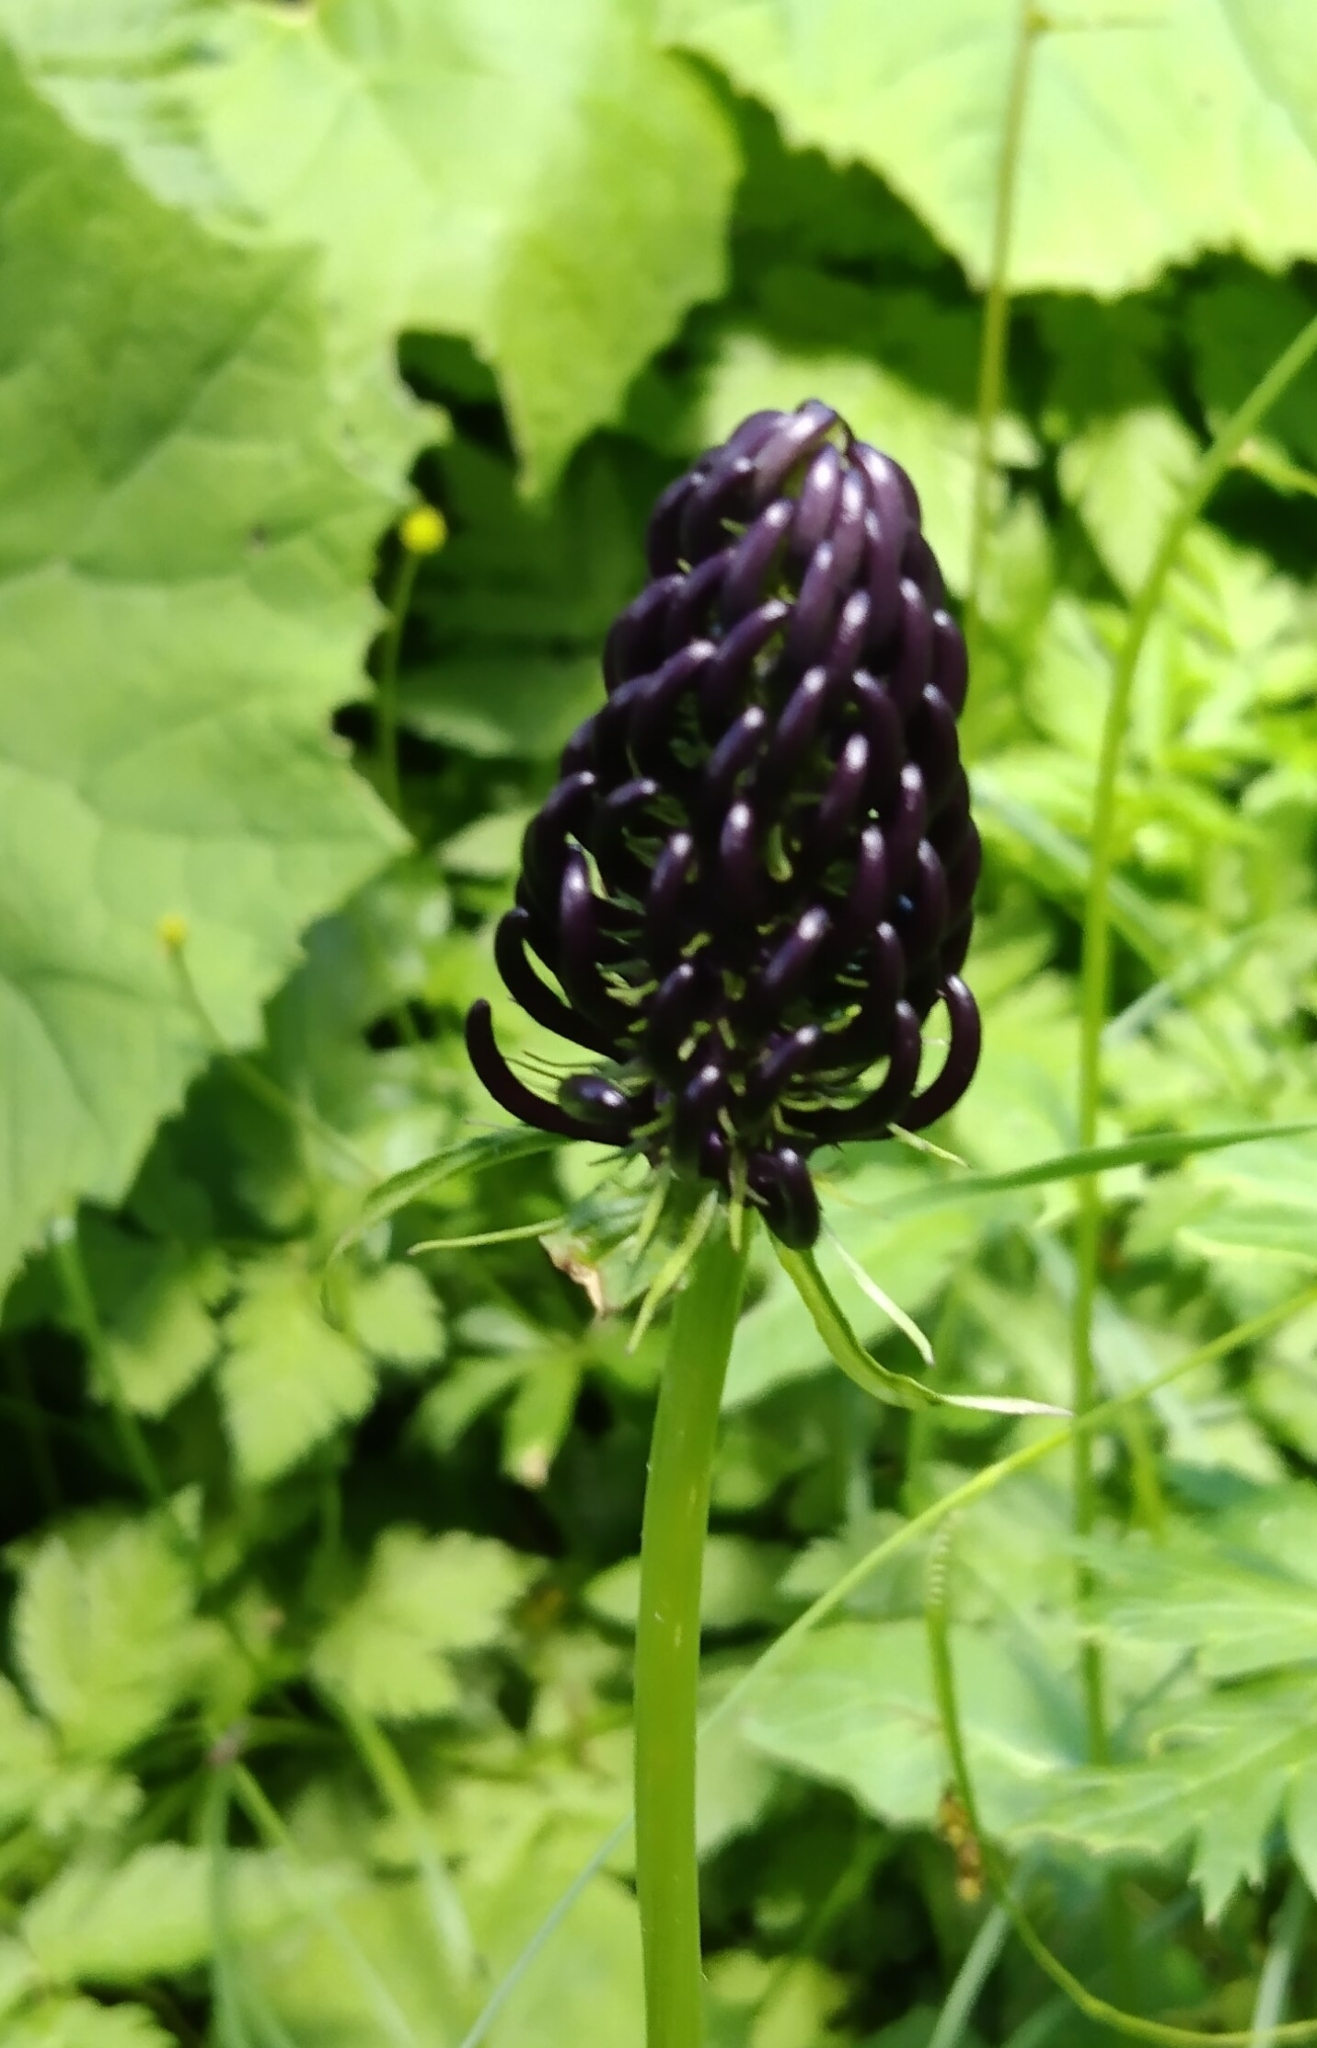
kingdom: Plantae
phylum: Tracheophyta
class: Magnoliopsida
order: Asterales
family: Campanulaceae
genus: Phyteuma
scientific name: Phyteuma ovatum
